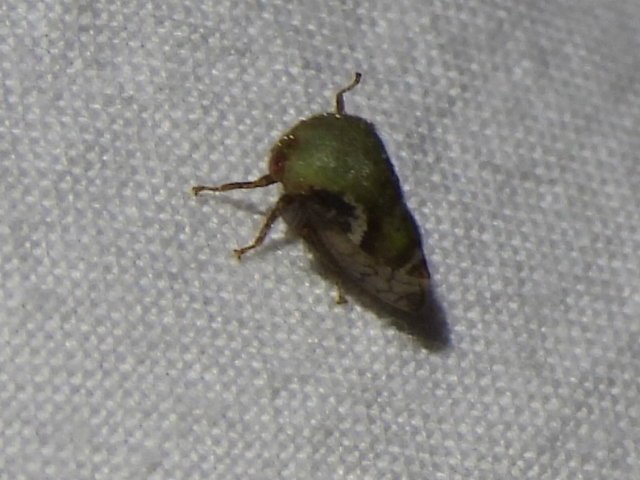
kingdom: Animalia
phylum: Arthropoda
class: Insecta
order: Hemiptera
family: Membracidae
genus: Vanduzea
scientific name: Vanduzea segmentata
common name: Membracid bug
